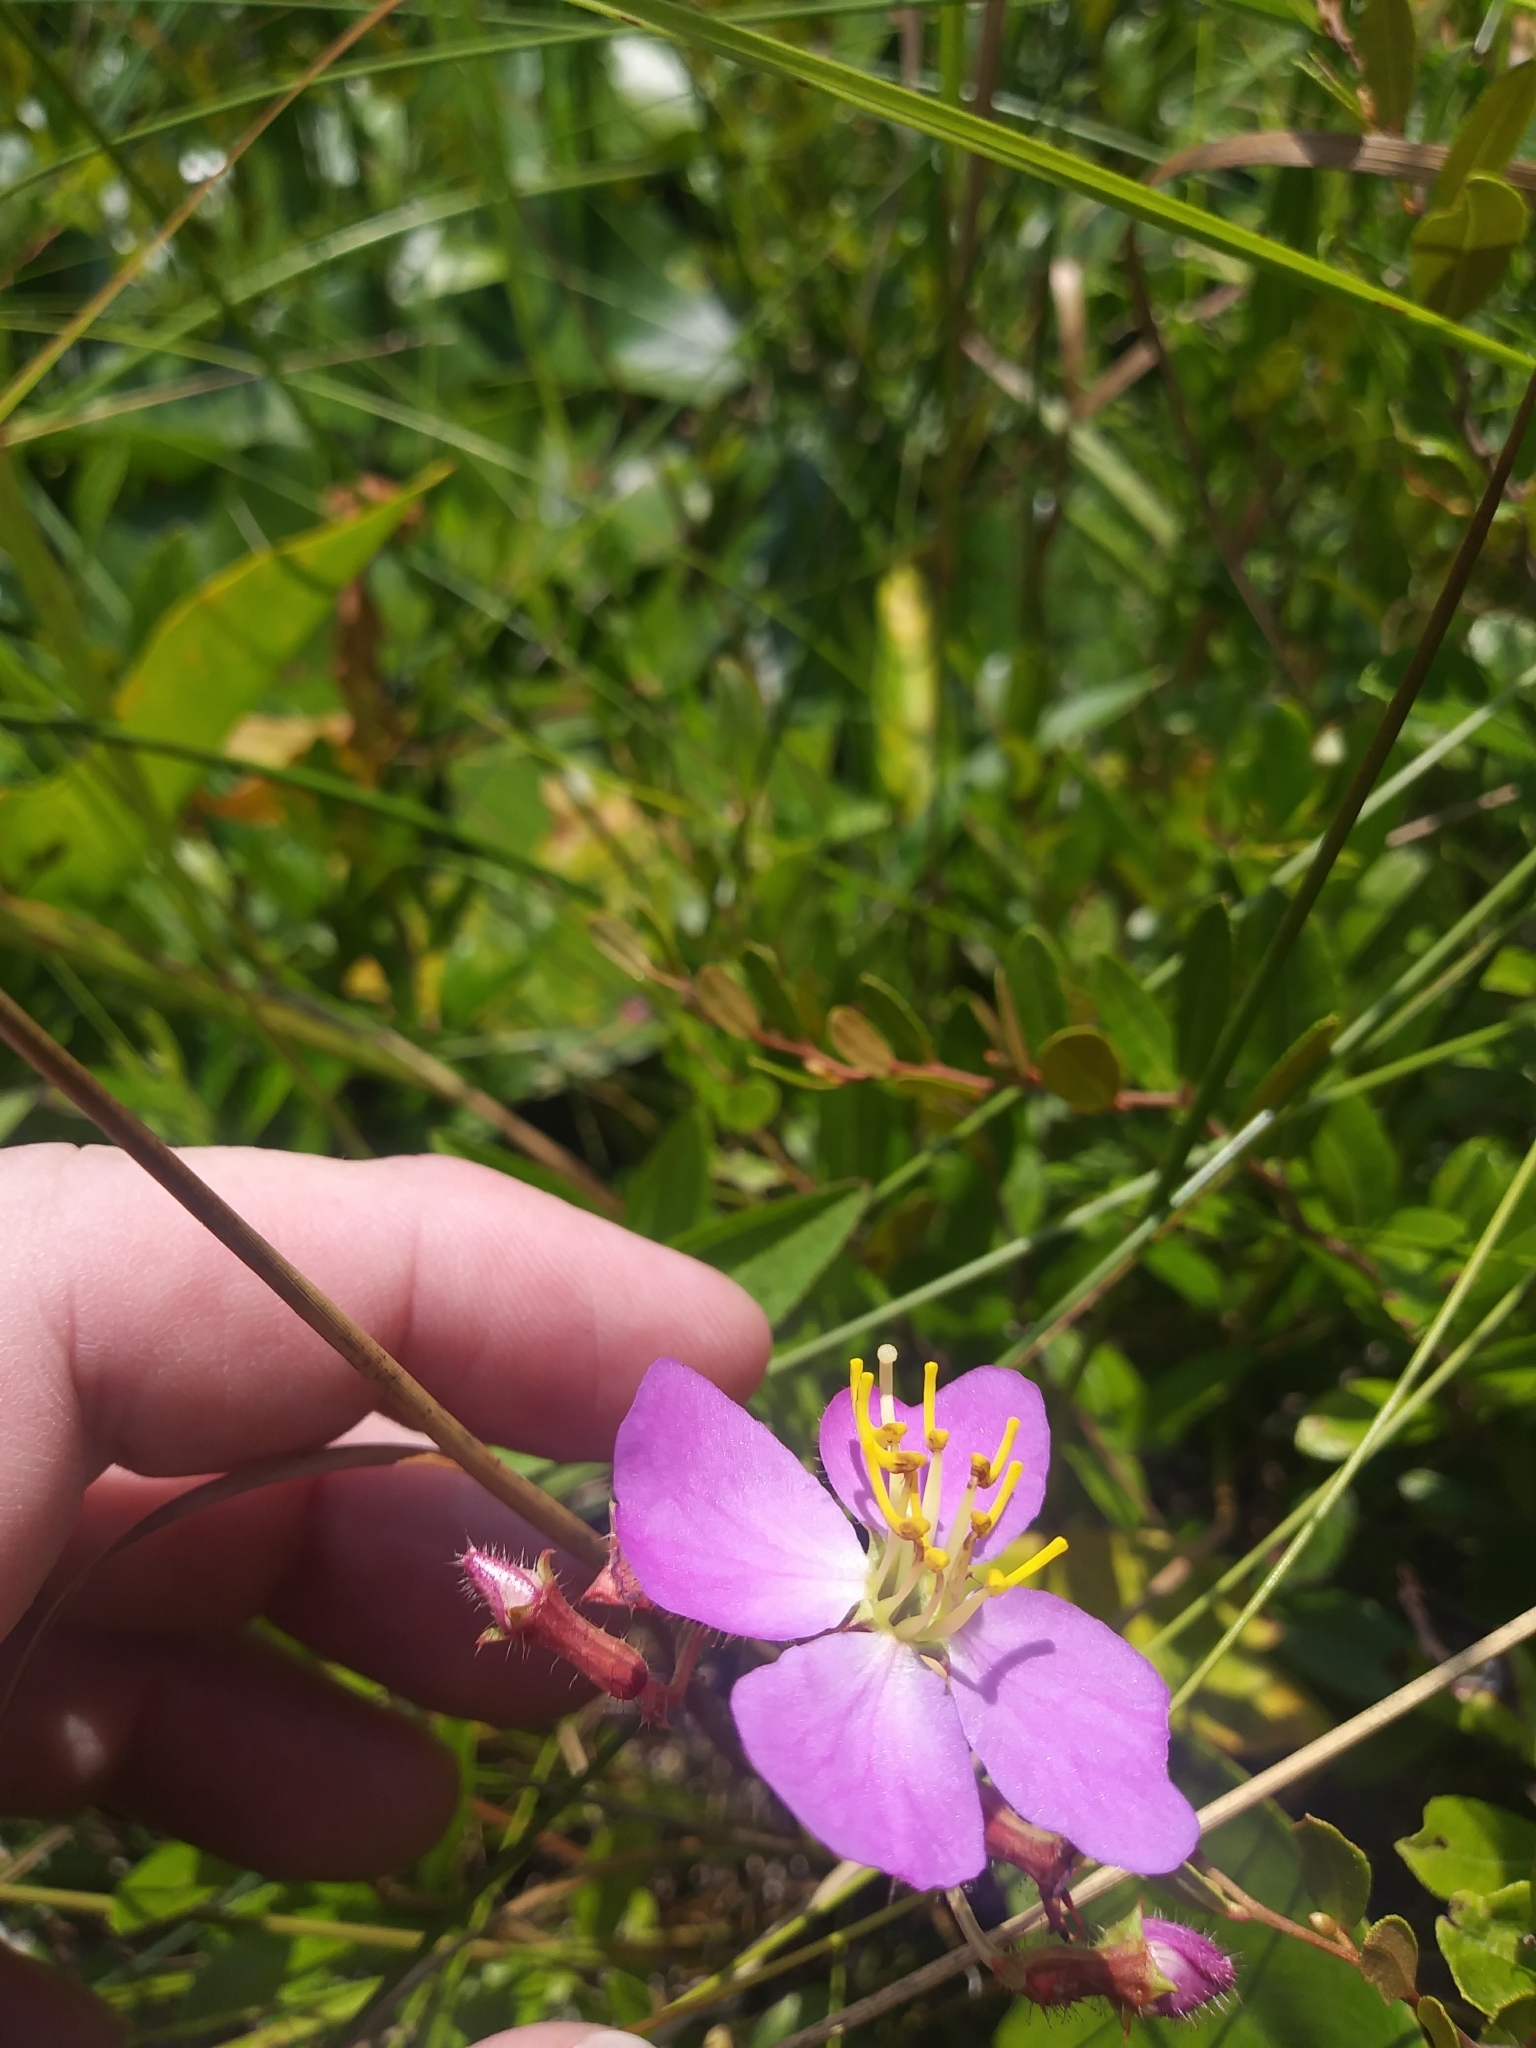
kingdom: Plantae
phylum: Tracheophyta
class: Magnoliopsida
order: Myrtales
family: Melastomataceae
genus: Rhexia
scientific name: Rhexia virginica
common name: Common meadow beauty
